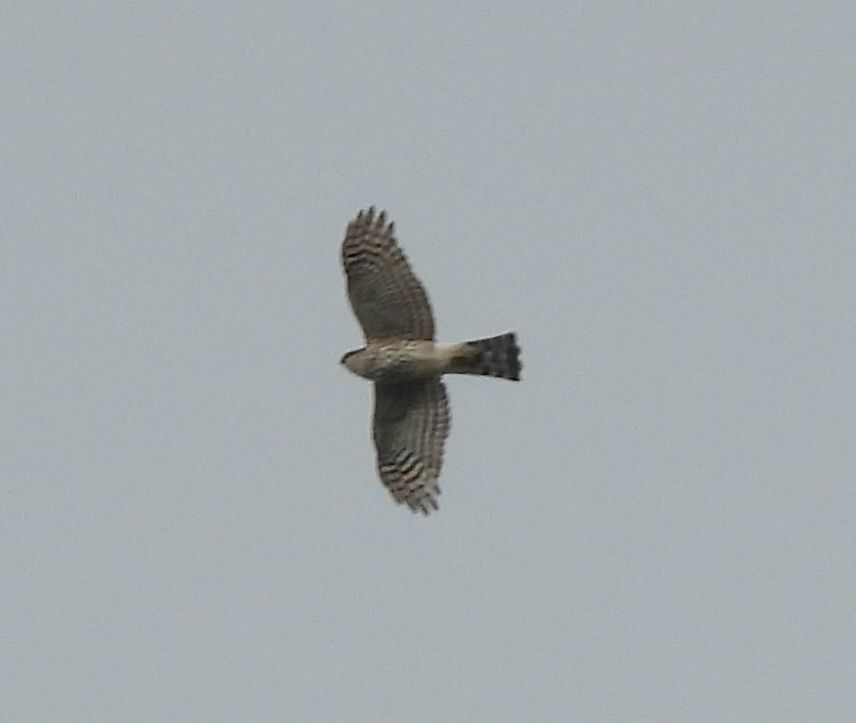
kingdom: Animalia
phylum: Chordata
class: Aves
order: Accipitriformes
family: Accipitridae
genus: Accipiter
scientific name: Accipiter striatus
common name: Sharp-shinned hawk
